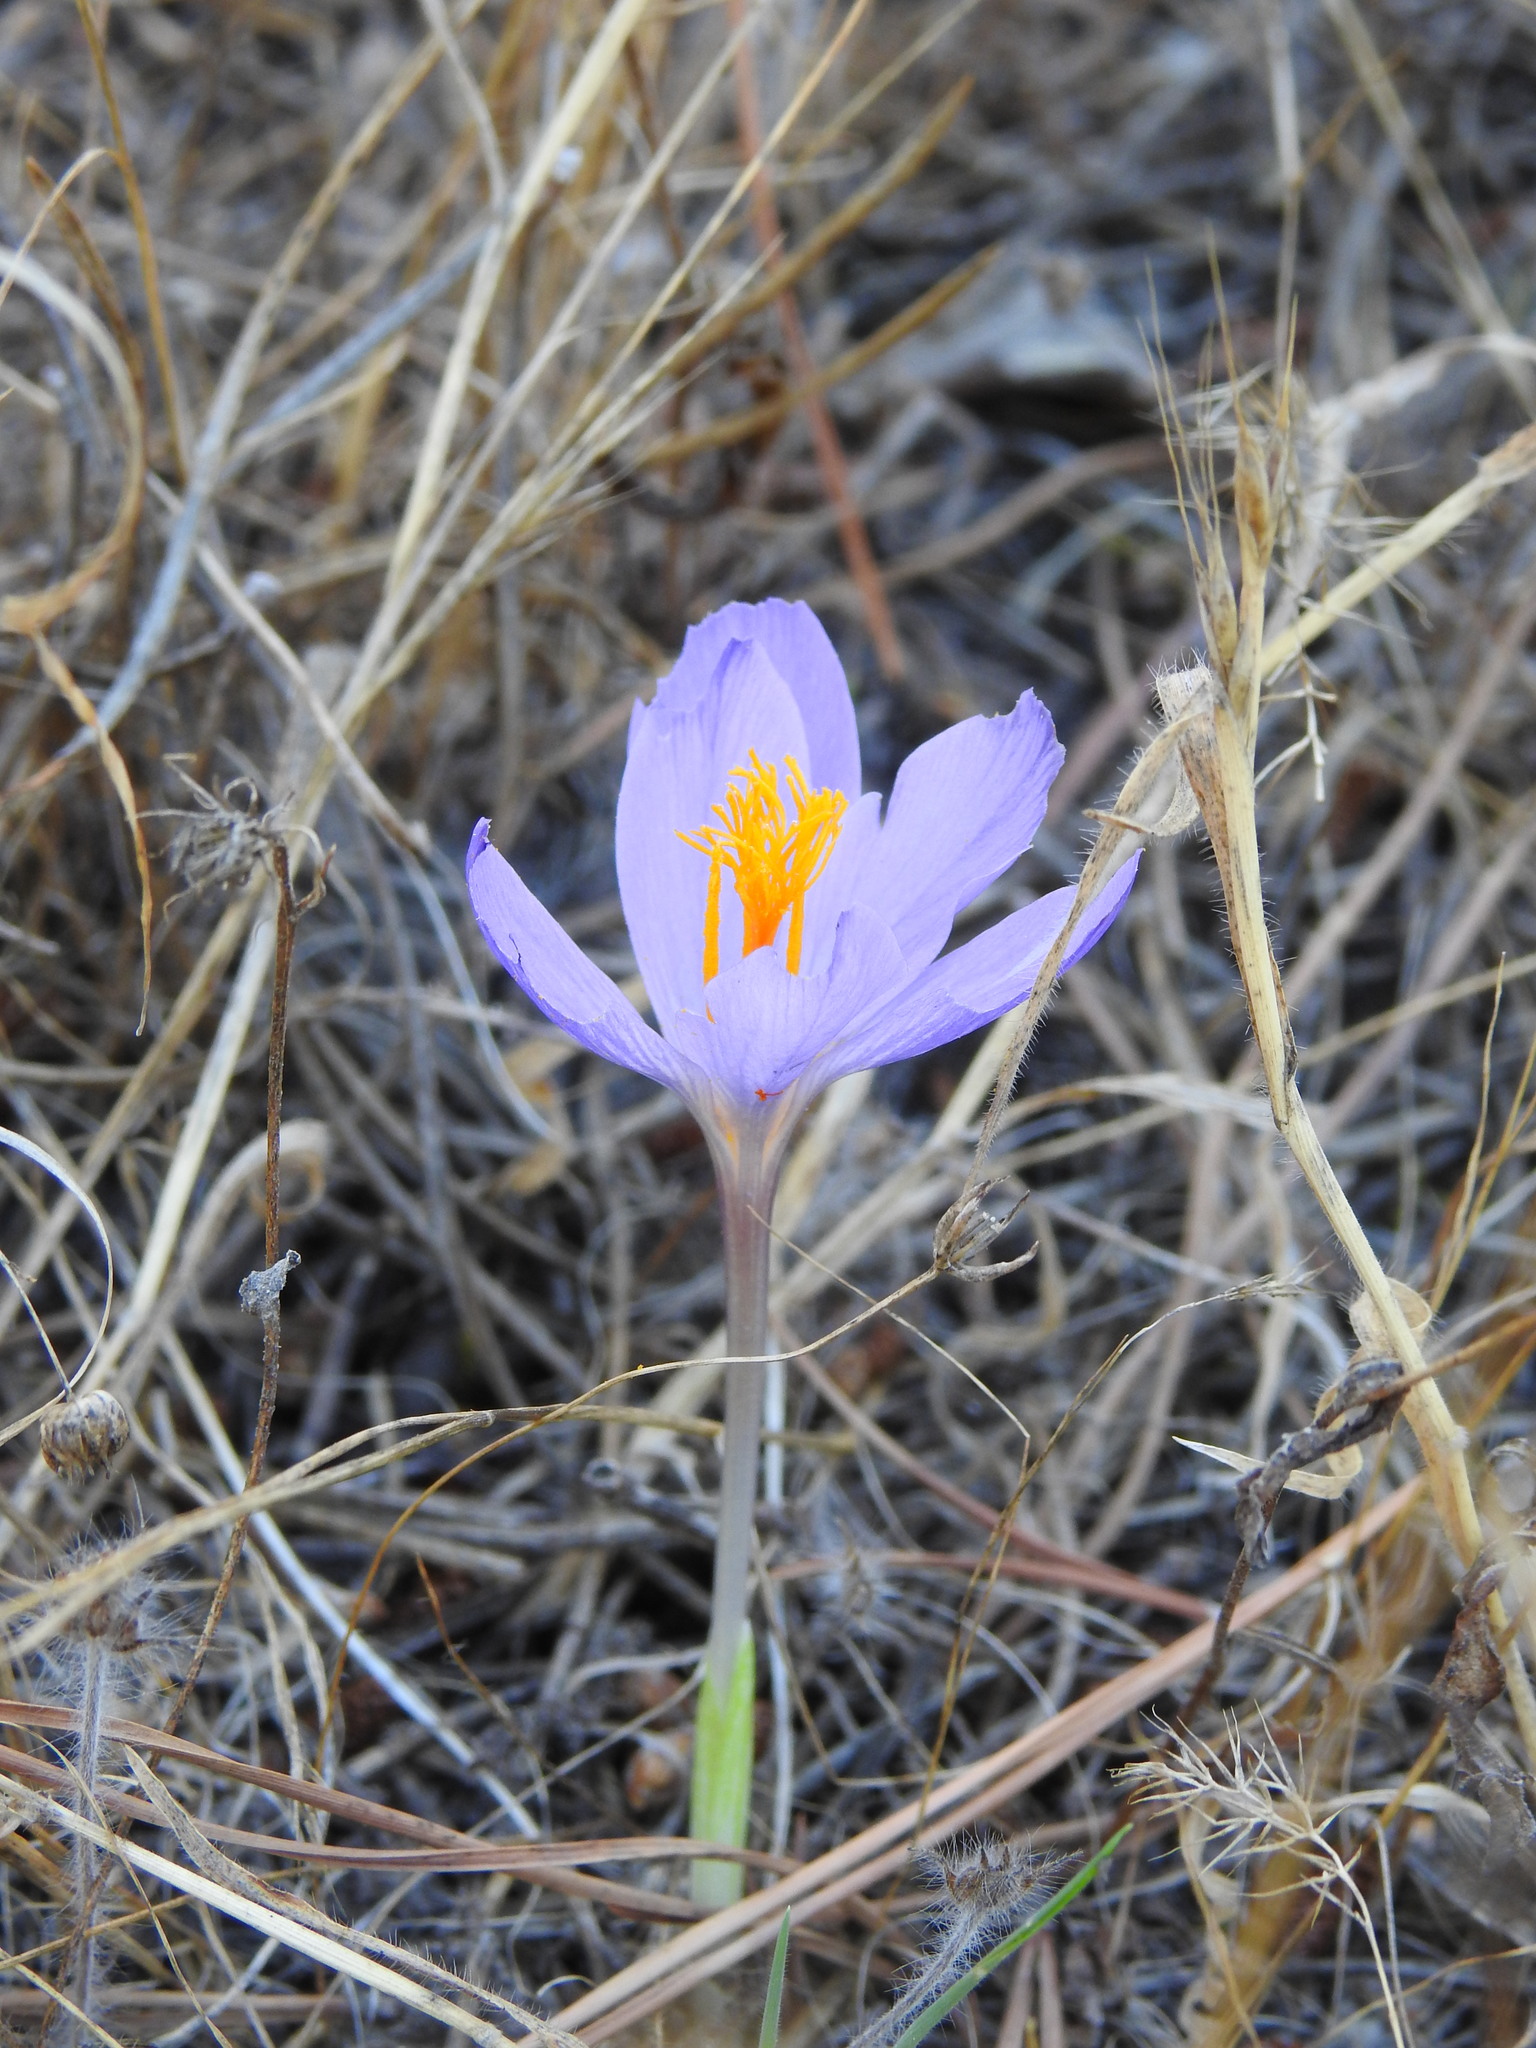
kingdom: Plantae
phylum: Tracheophyta
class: Liliopsida
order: Asparagales
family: Iridaceae
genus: Crocus
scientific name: Crocus serotinus
